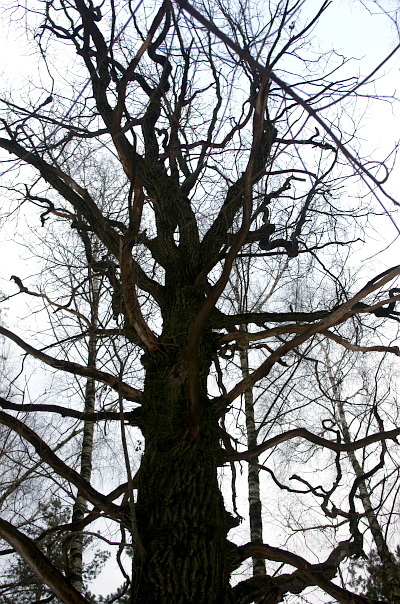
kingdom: Plantae
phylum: Tracheophyta
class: Magnoliopsida
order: Fagales
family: Fagaceae
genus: Quercus
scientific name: Quercus robur
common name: Pedunculate oak
